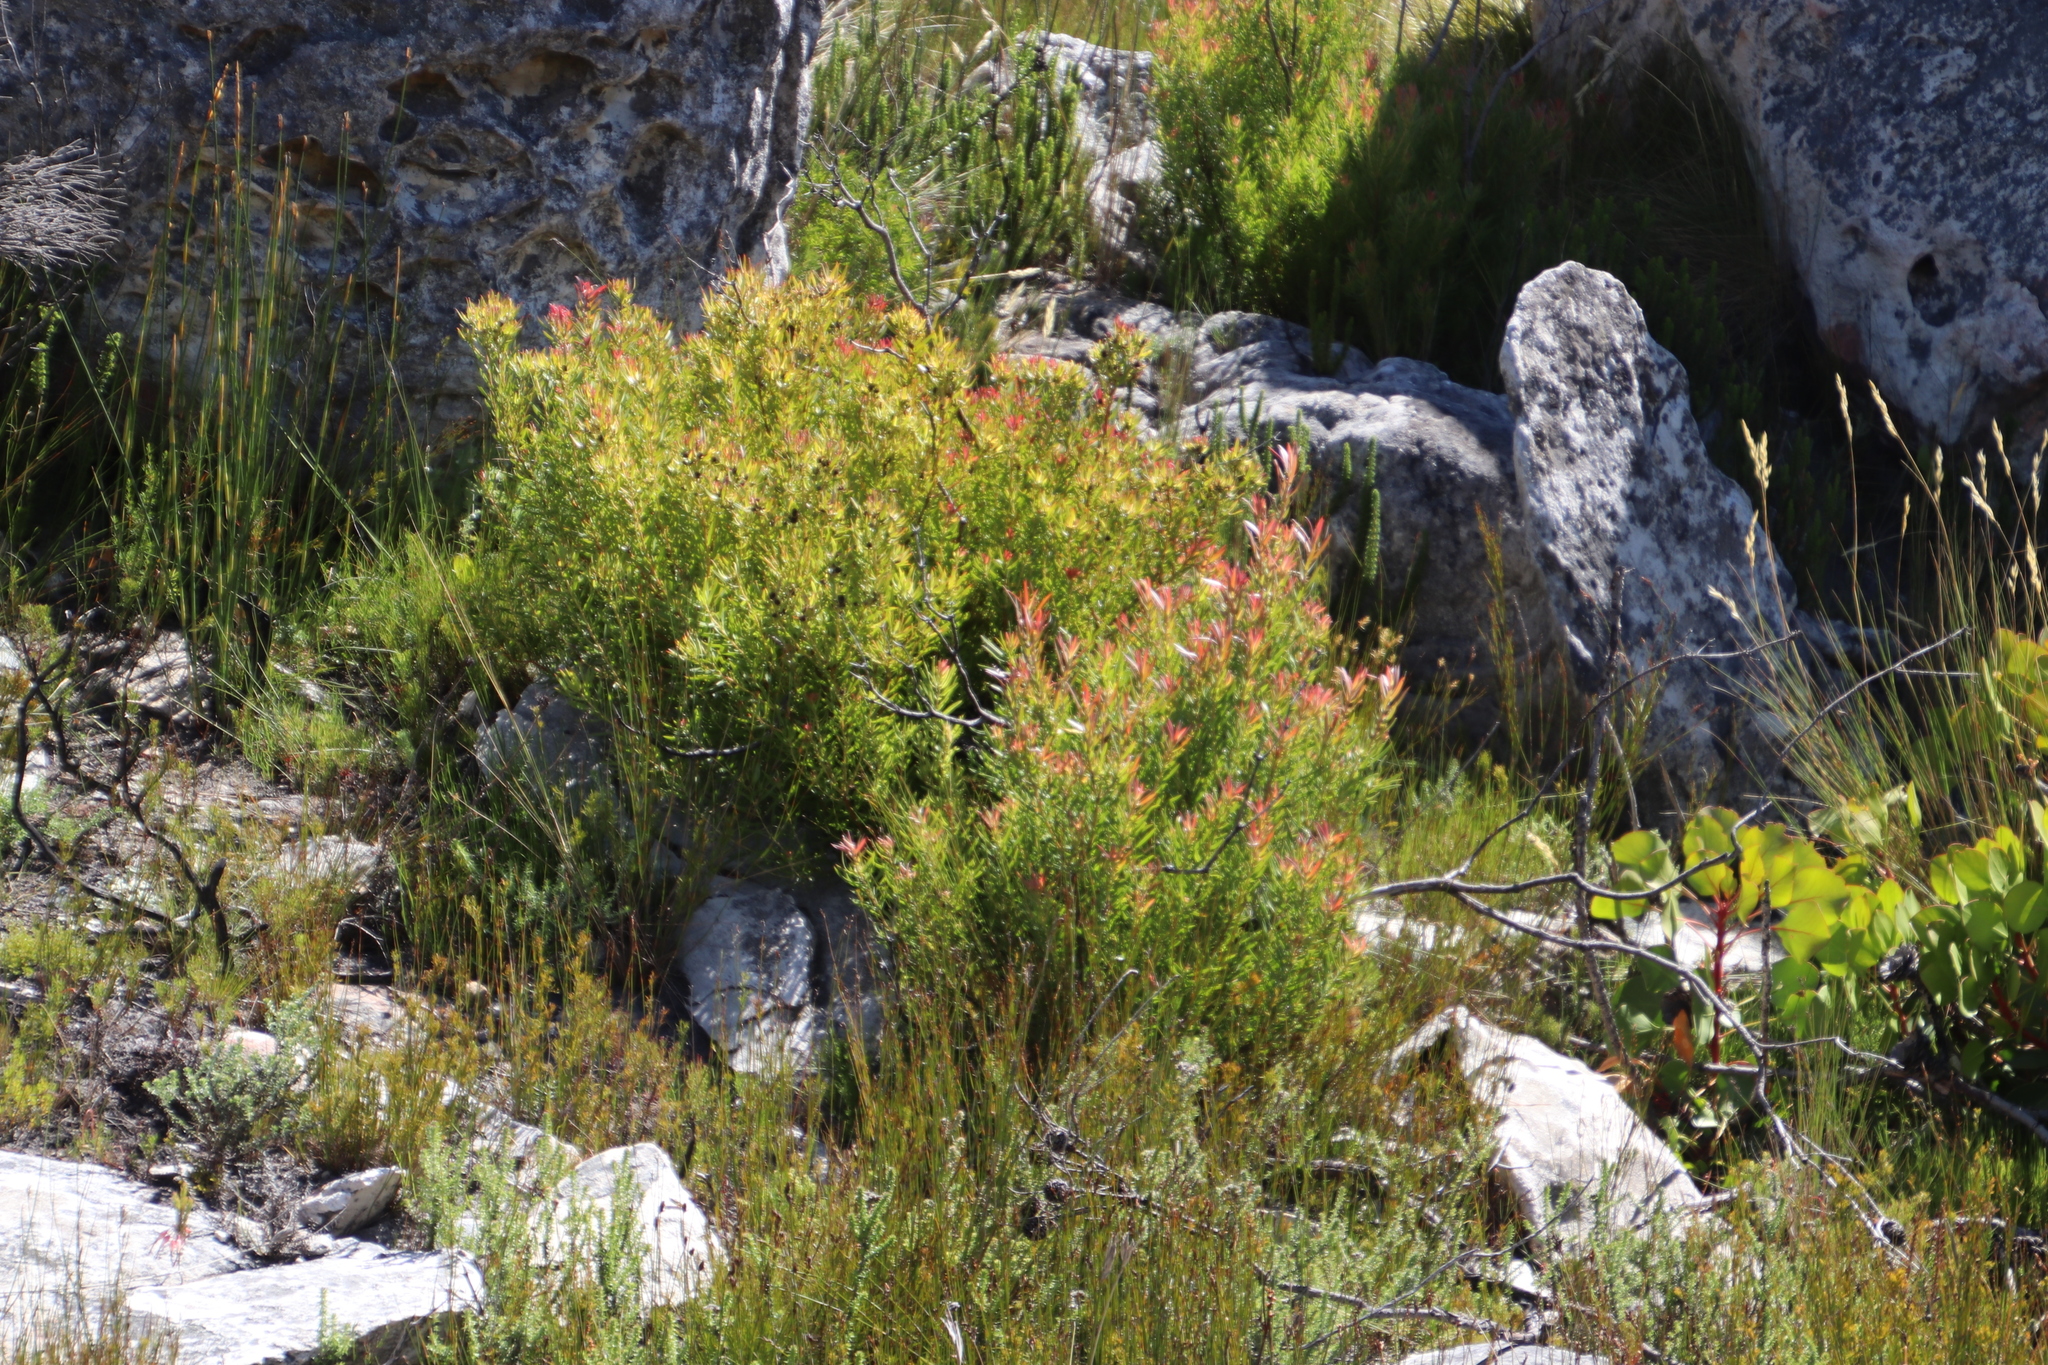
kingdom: Plantae
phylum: Tracheophyta
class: Magnoliopsida
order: Proteales
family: Proteaceae
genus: Leucadendron
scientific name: Leucadendron spissifolium
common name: Spear-leaf conebush
